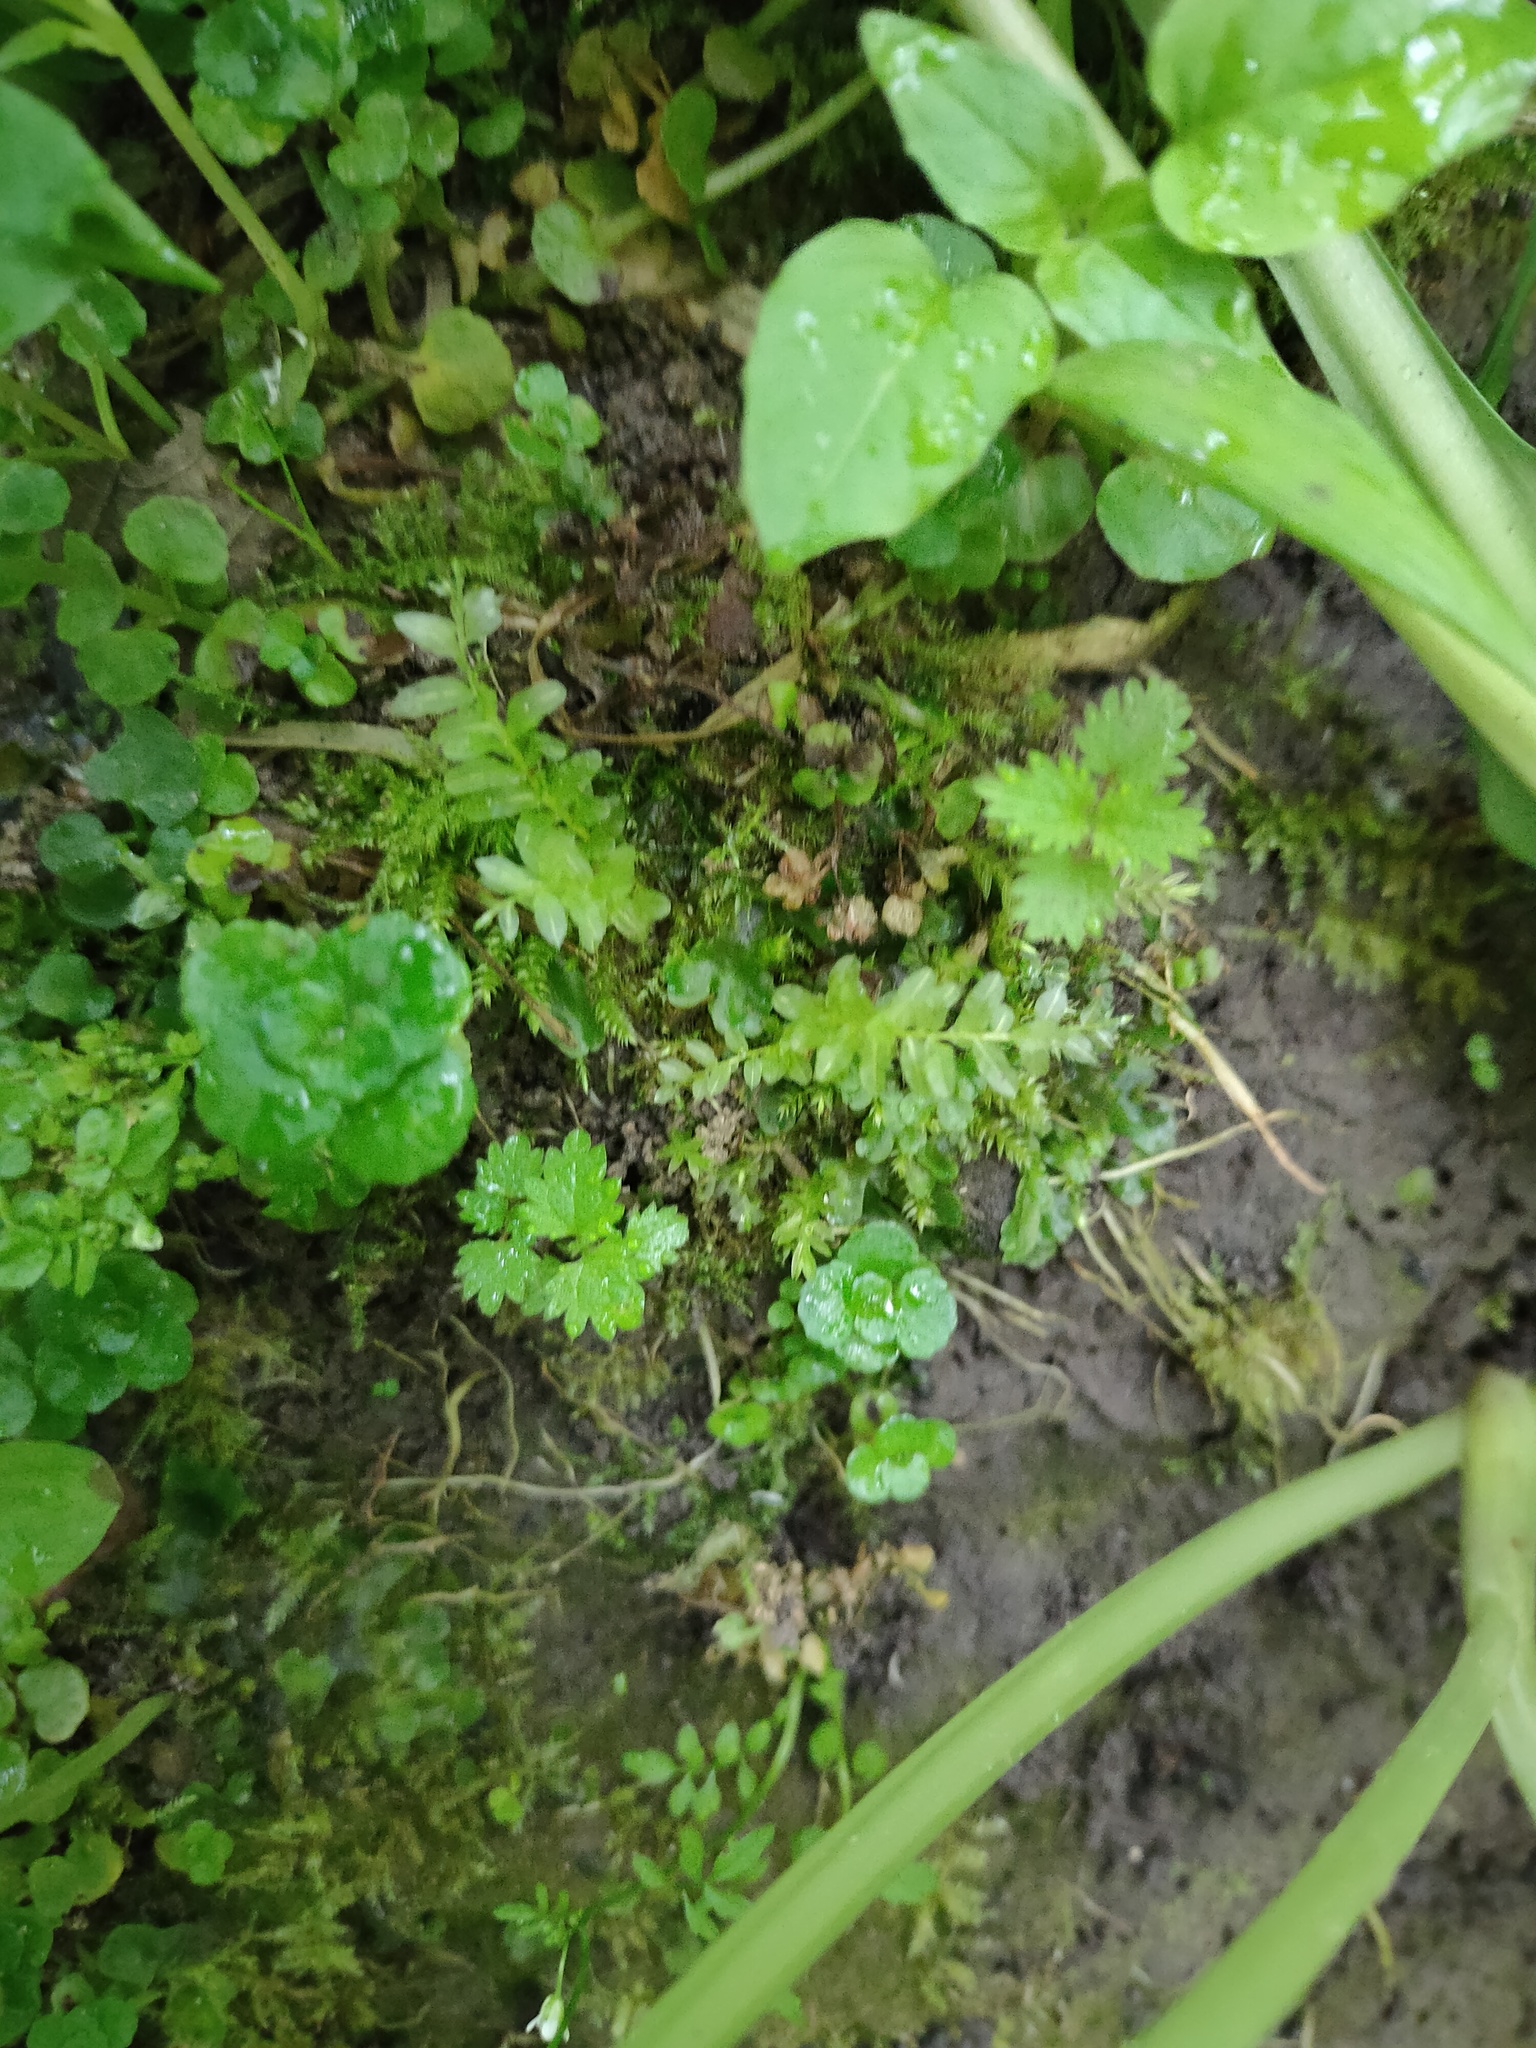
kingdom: Plantae
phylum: Bryophyta
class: Bryopsida
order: Bryales
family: Mniaceae
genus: Plagiomnium
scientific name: Plagiomnium undulatum
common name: Hart's-tongue thyme-moss
